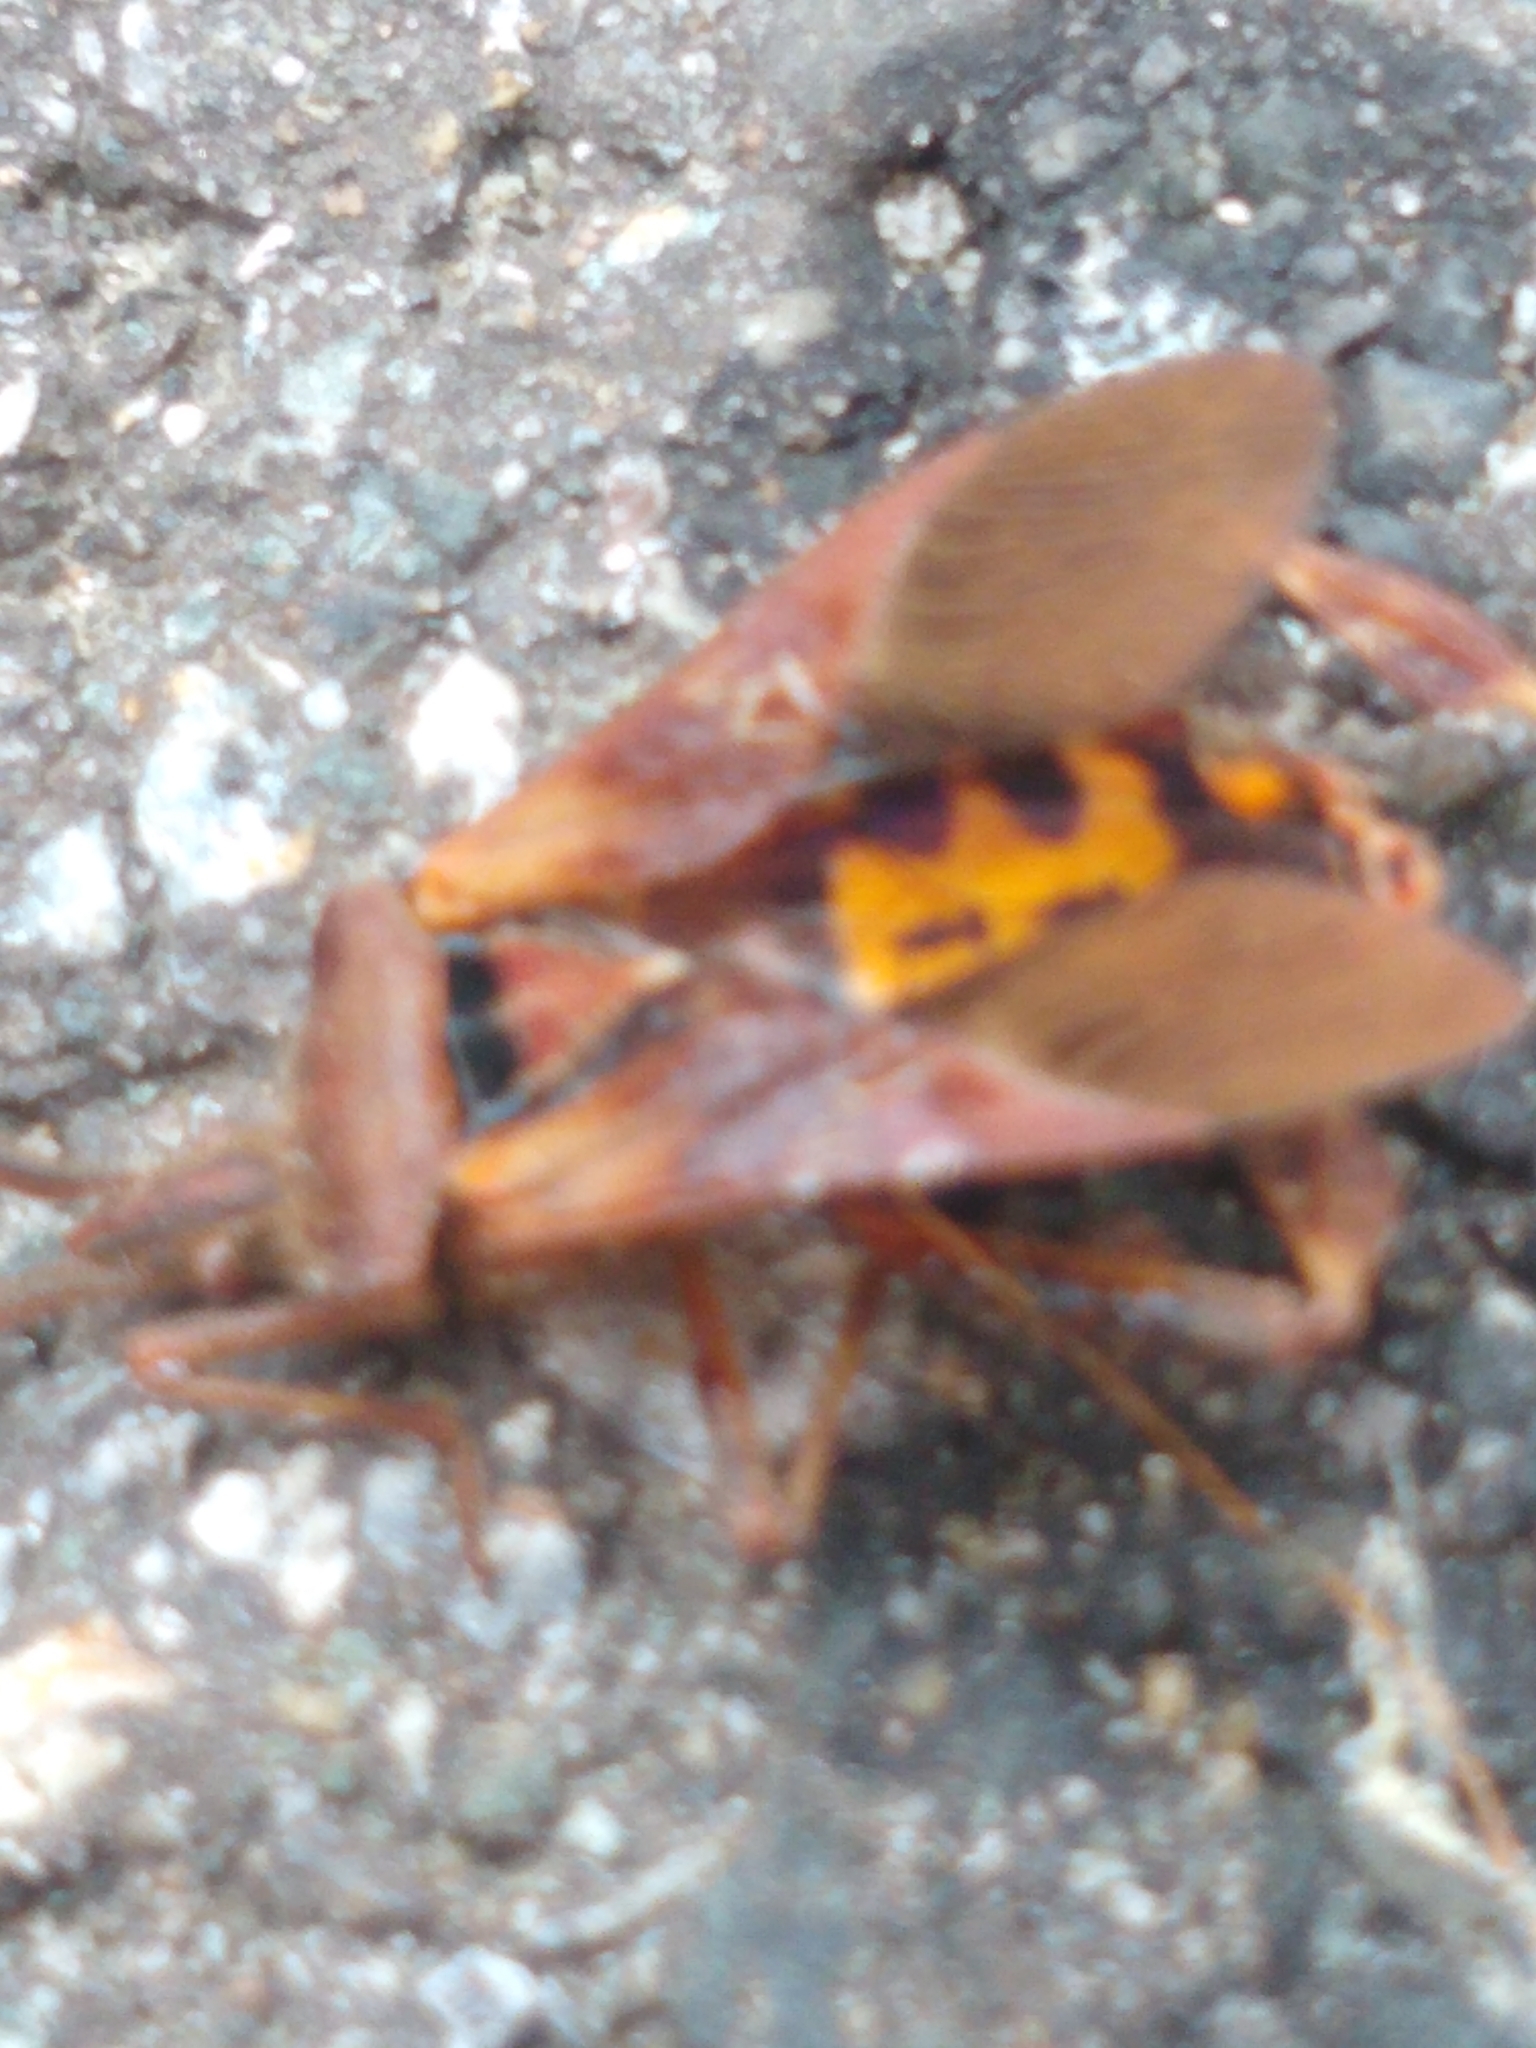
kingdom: Animalia
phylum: Arthropoda
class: Insecta
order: Hemiptera
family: Coreidae
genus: Leptoglossus
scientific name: Leptoglossus occidentalis
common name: Western conifer-seed bug
